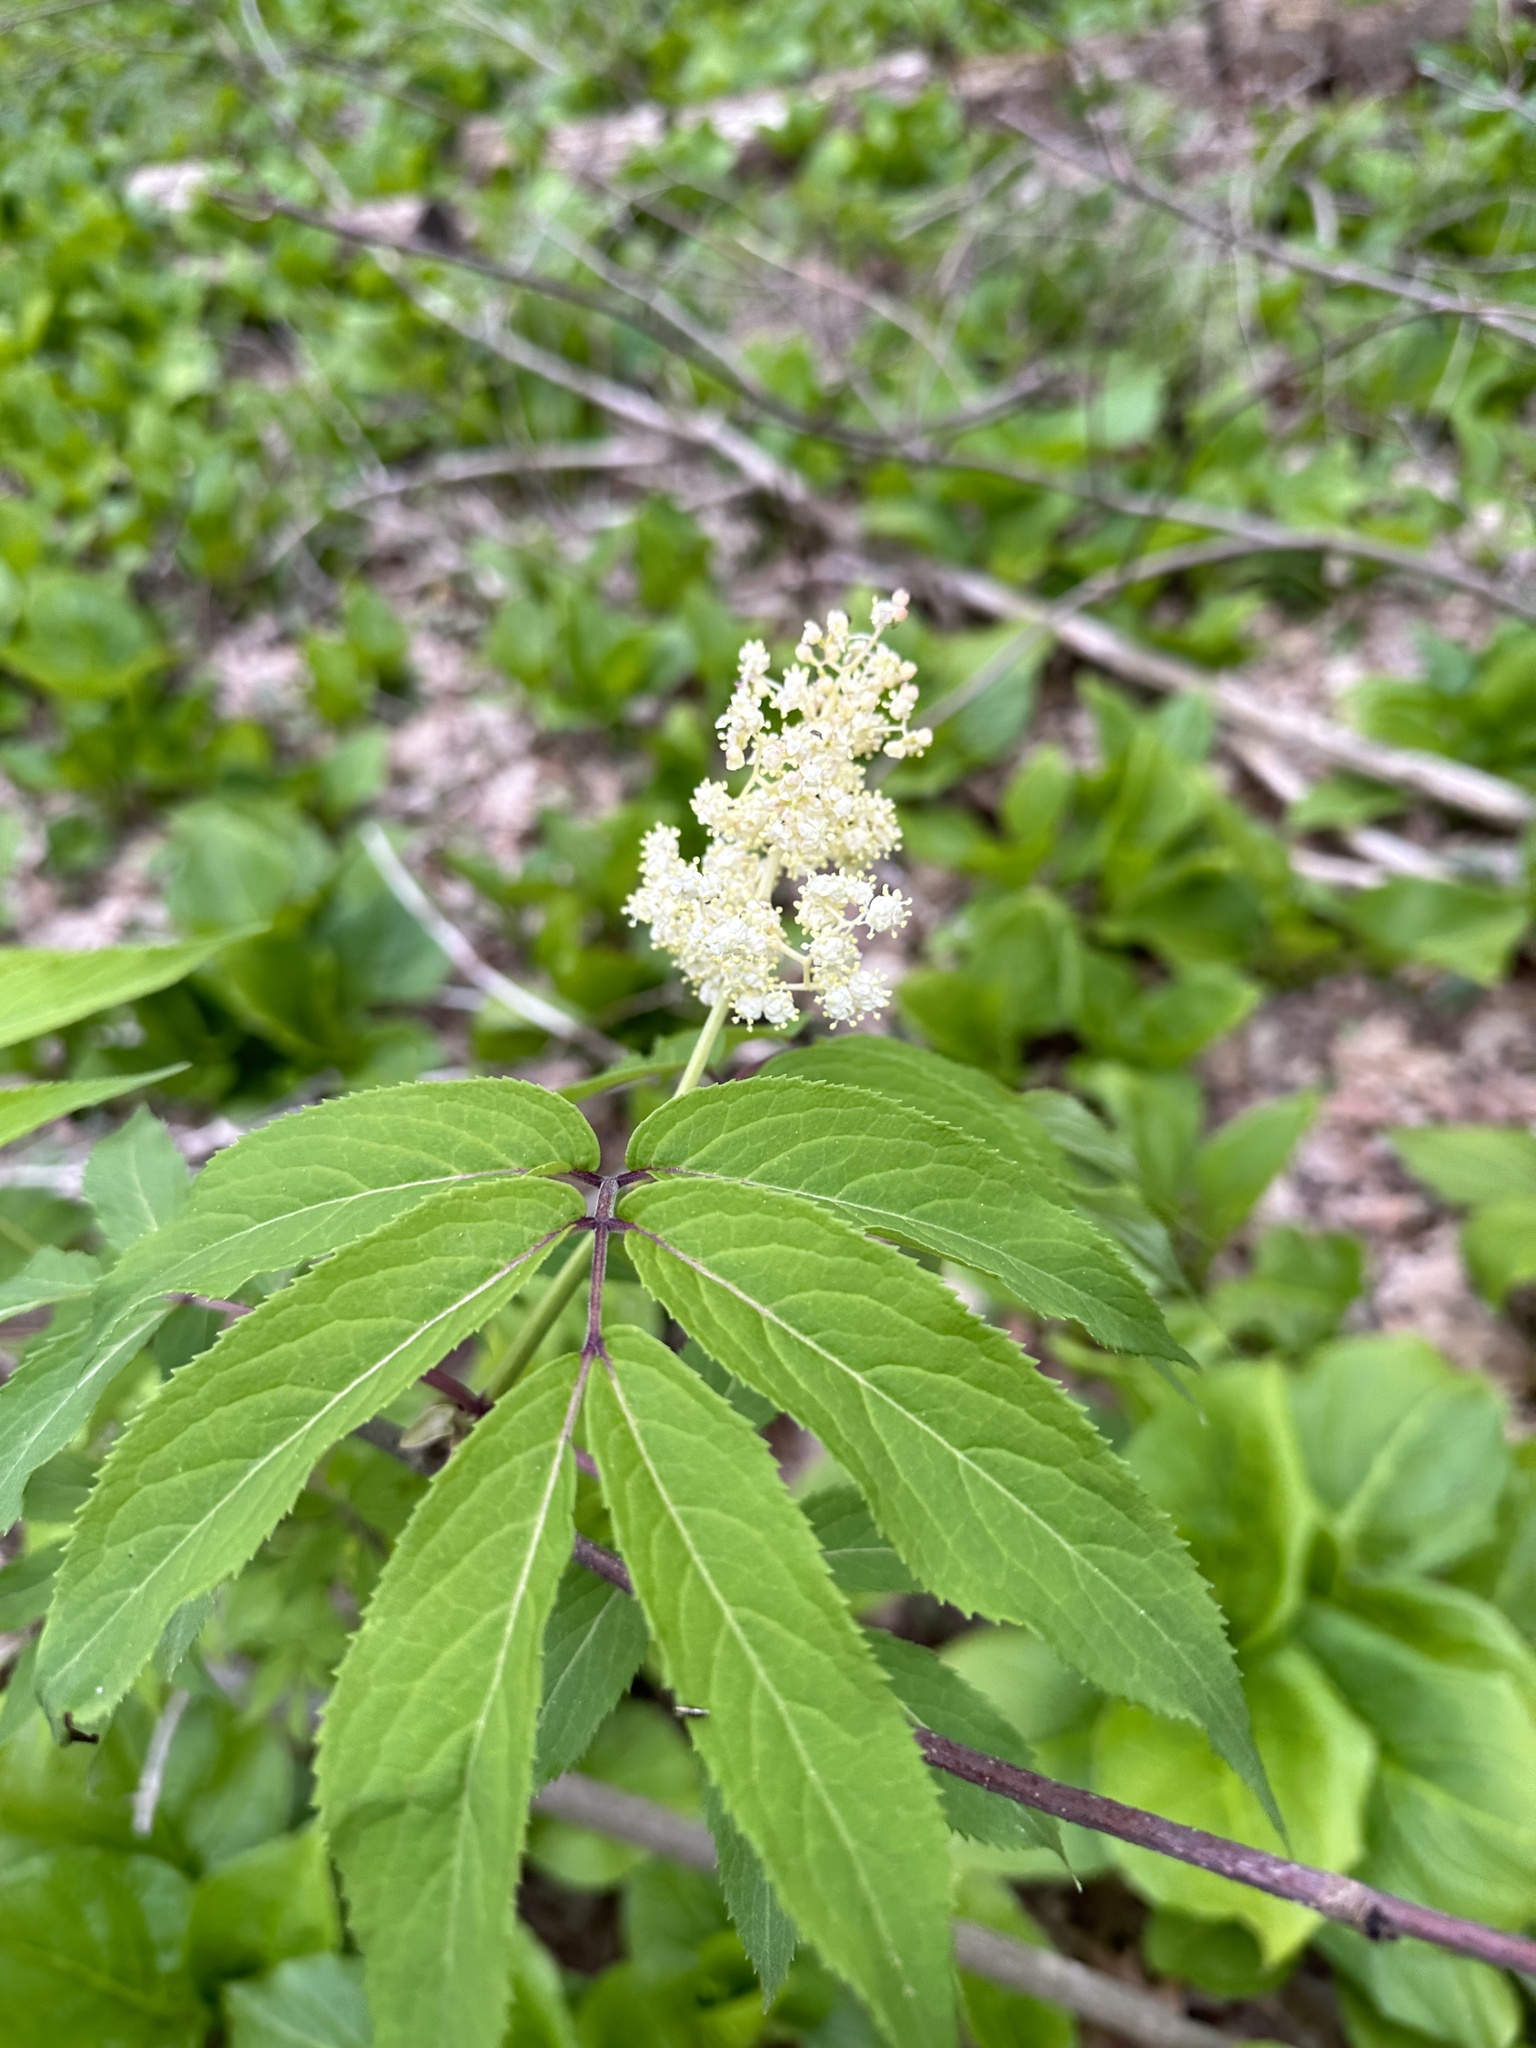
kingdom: Plantae
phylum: Tracheophyta
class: Magnoliopsida
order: Dipsacales
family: Viburnaceae
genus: Sambucus
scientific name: Sambucus racemosa
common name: Red-berried elder
